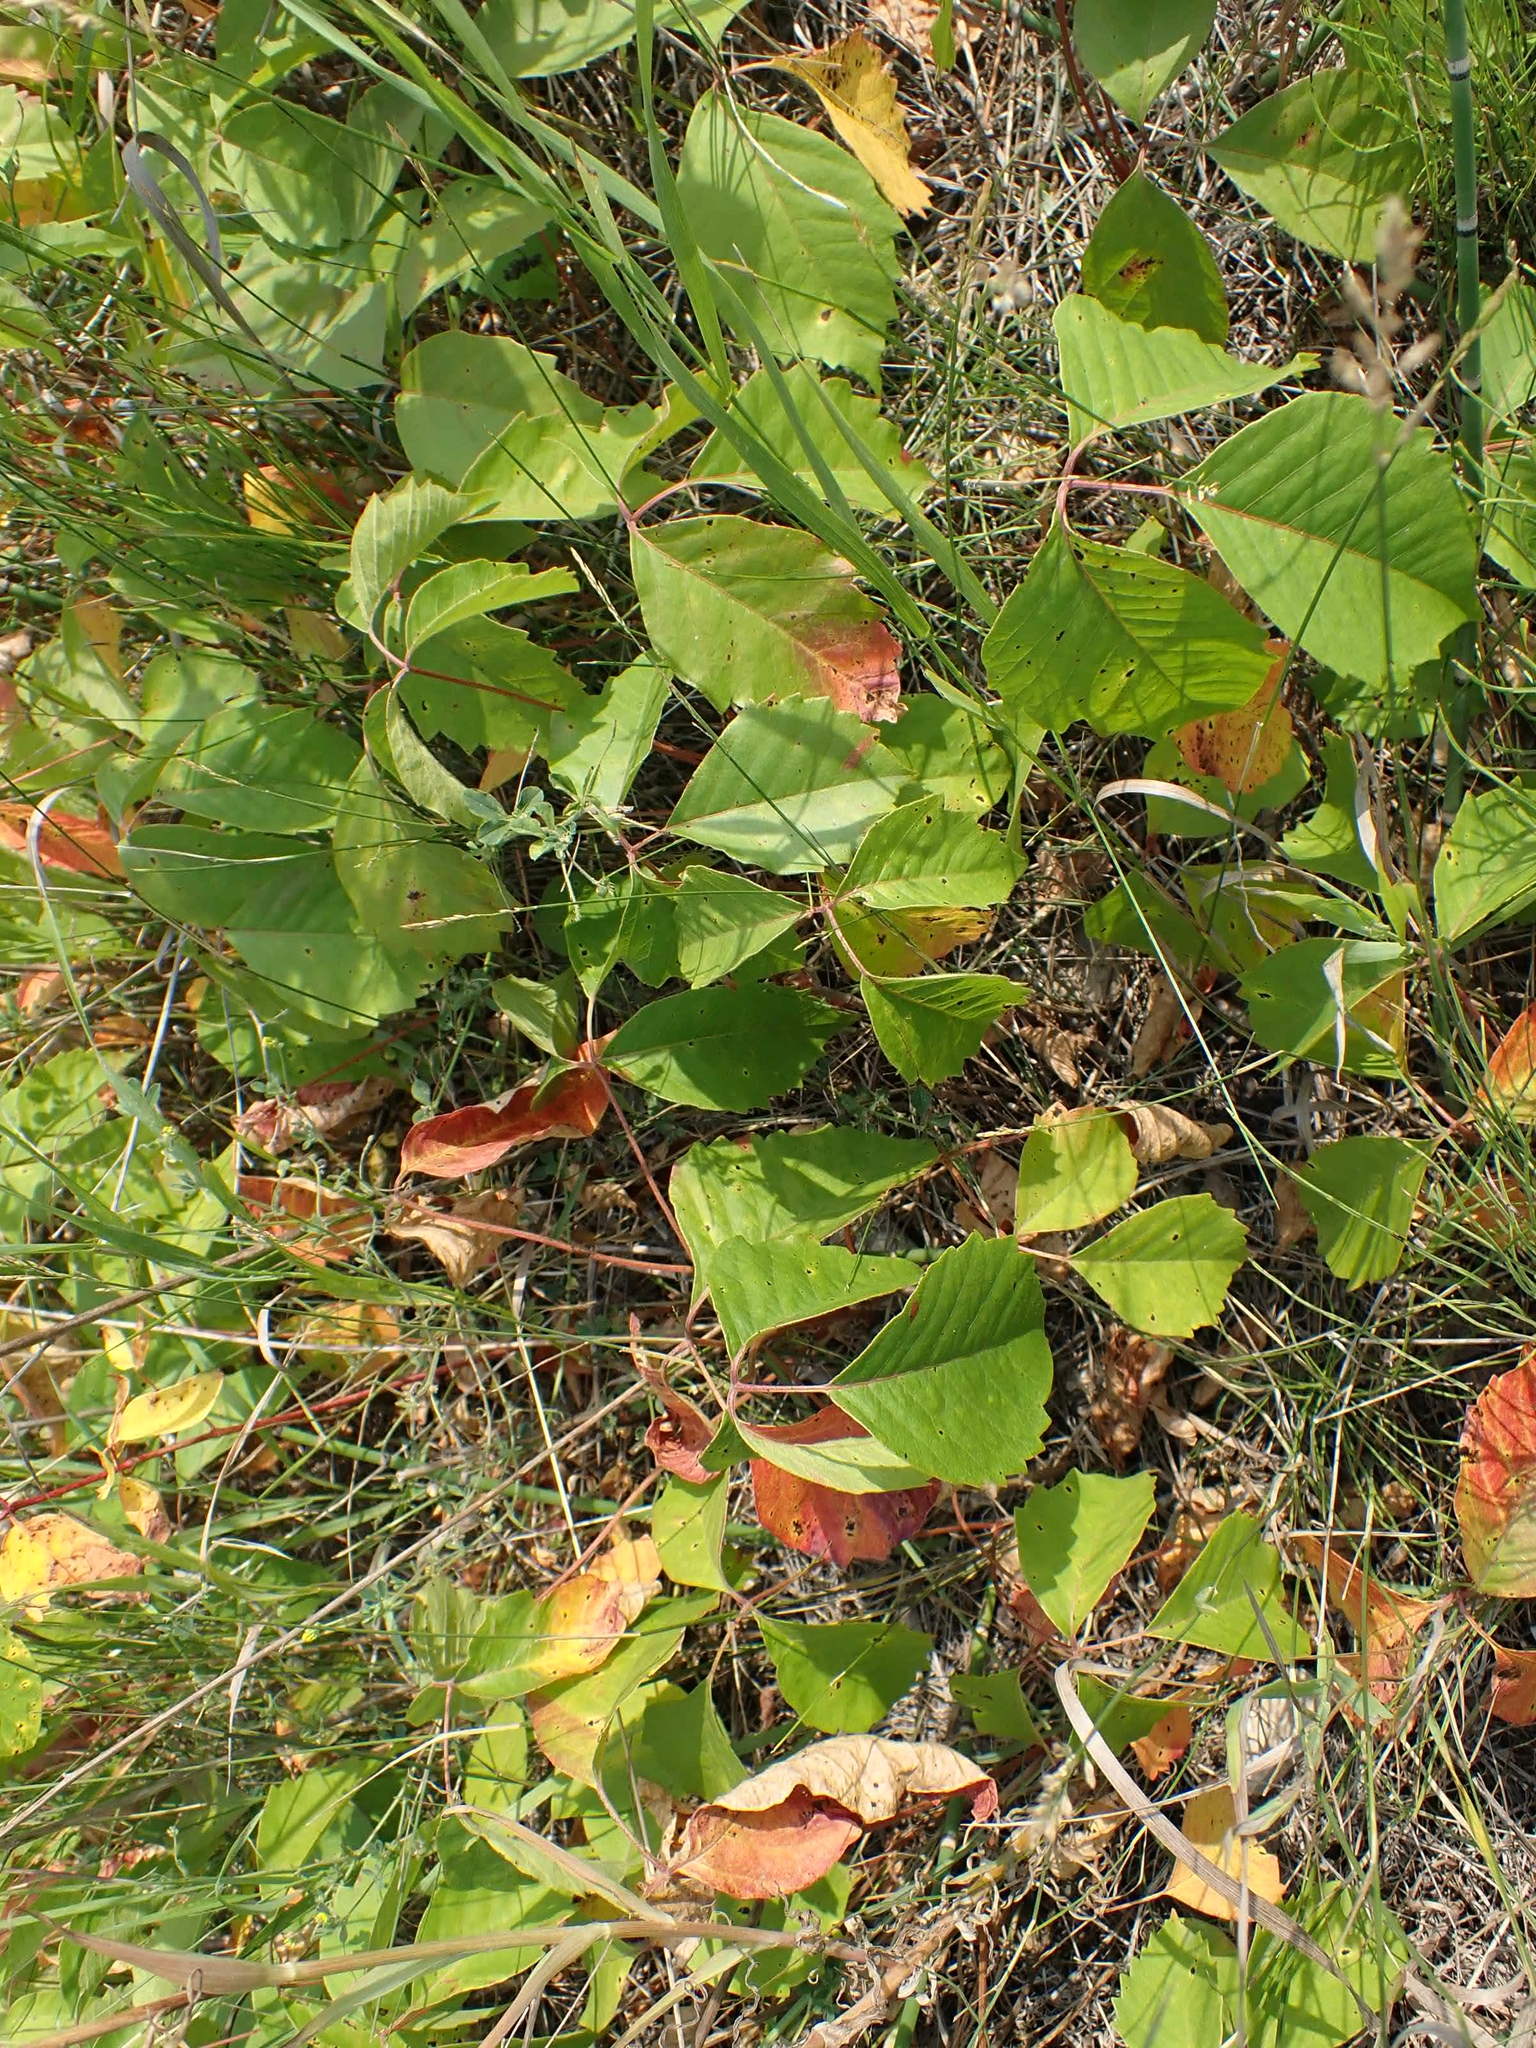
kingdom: Plantae
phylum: Tracheophyta
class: Magnoliopsida
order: Sapindales
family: Anacardiaceae
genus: Toxicodendron
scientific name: Toxicodendron rydbergii
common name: Rydberg's poison-ivy
